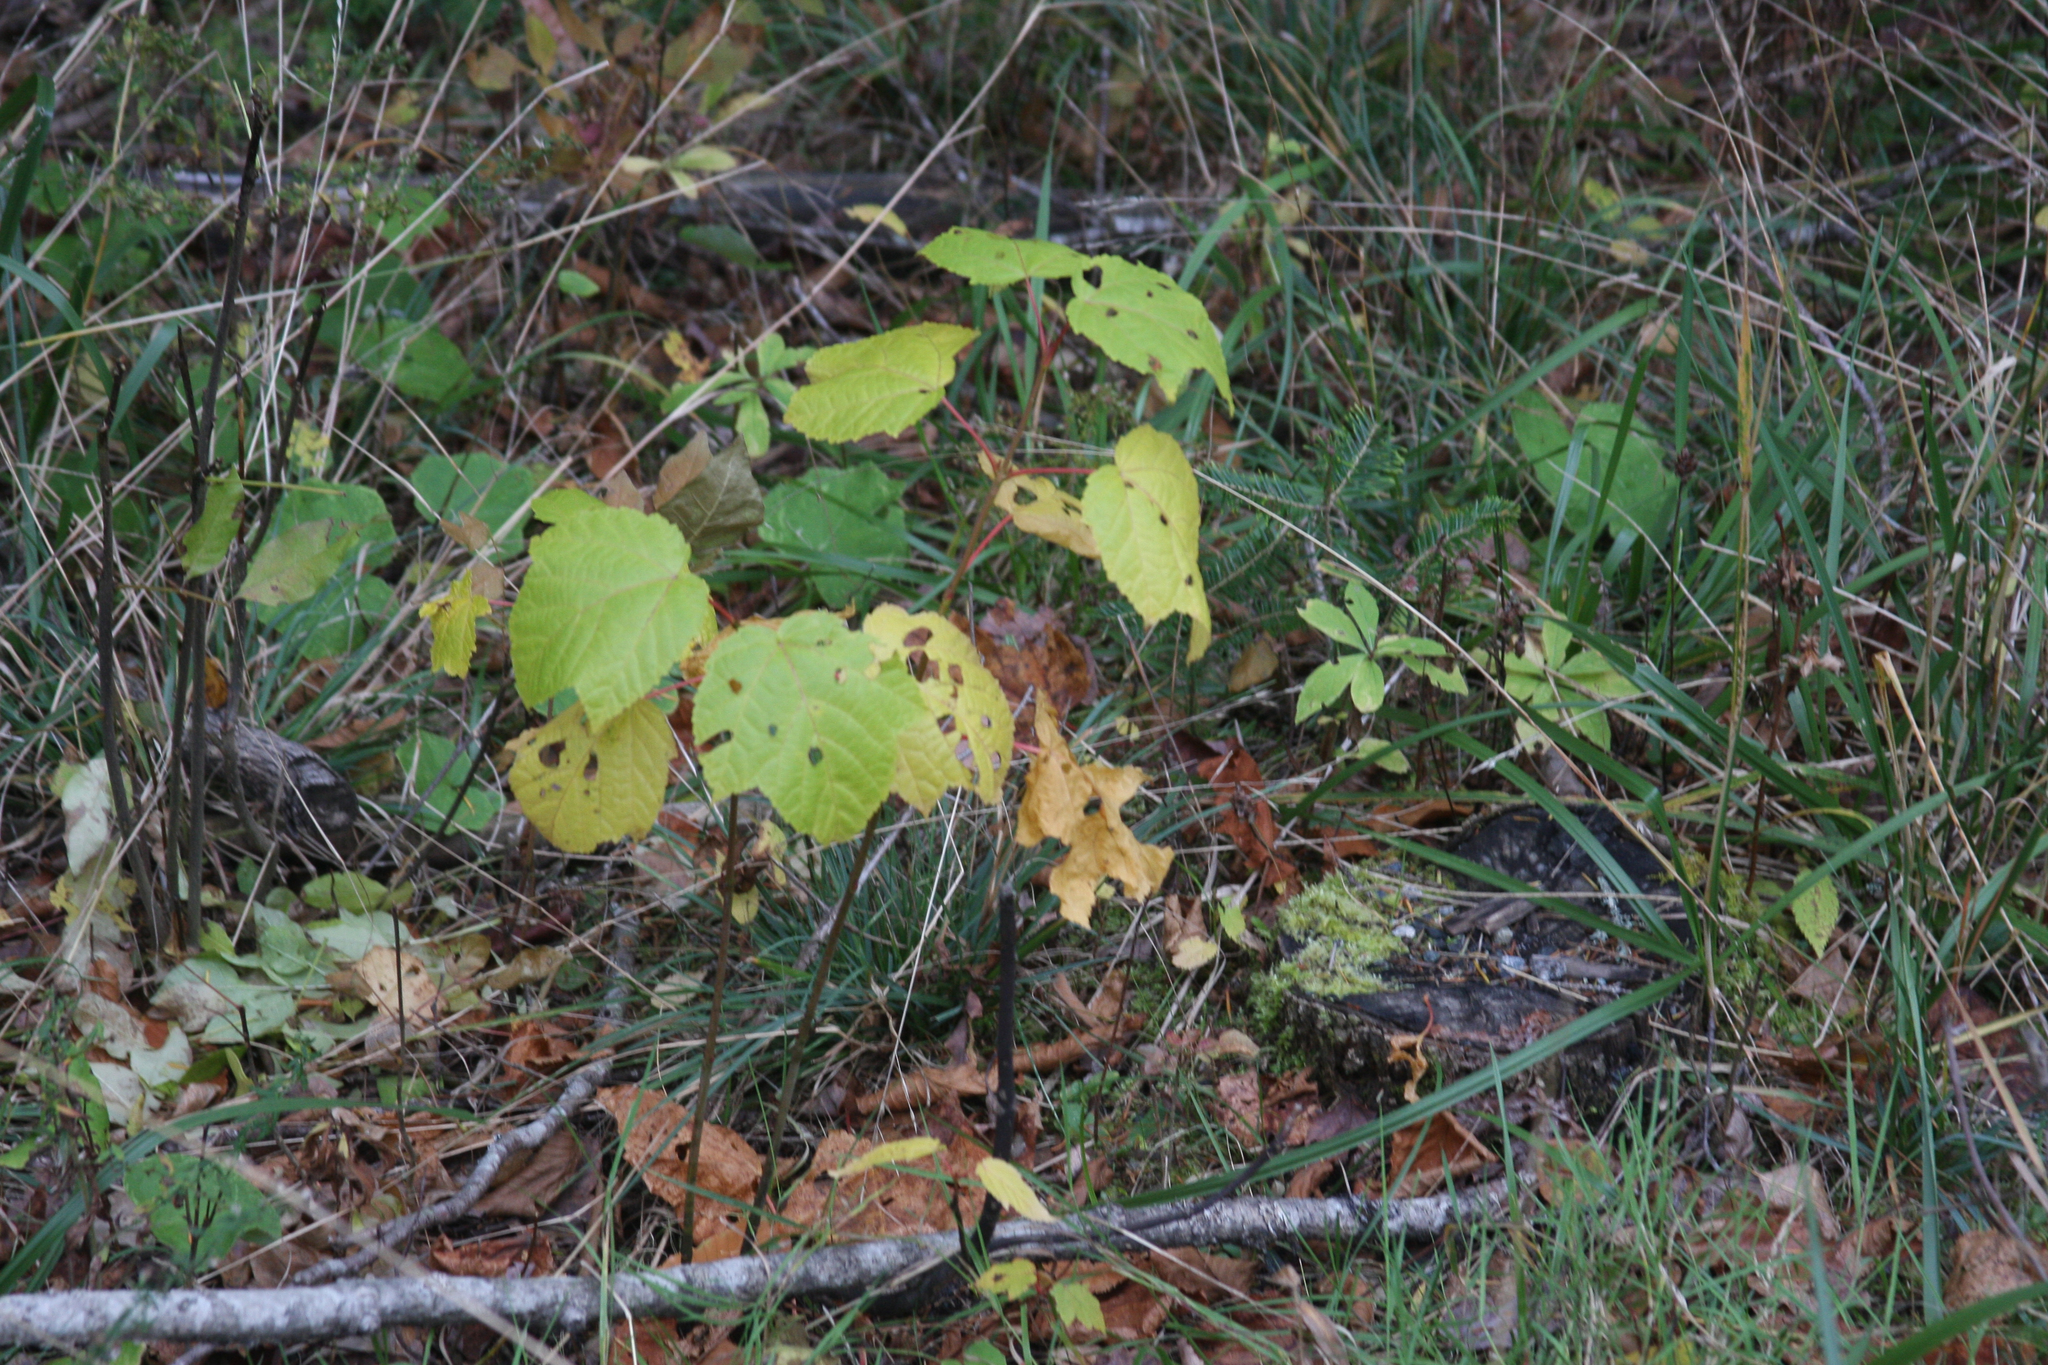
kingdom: Plantae
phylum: Tracheophyta
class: Magnoliopsida
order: Sapindales
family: Sapindaceae
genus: Acer
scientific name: Acer pensylvanicum
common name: Moosewood
